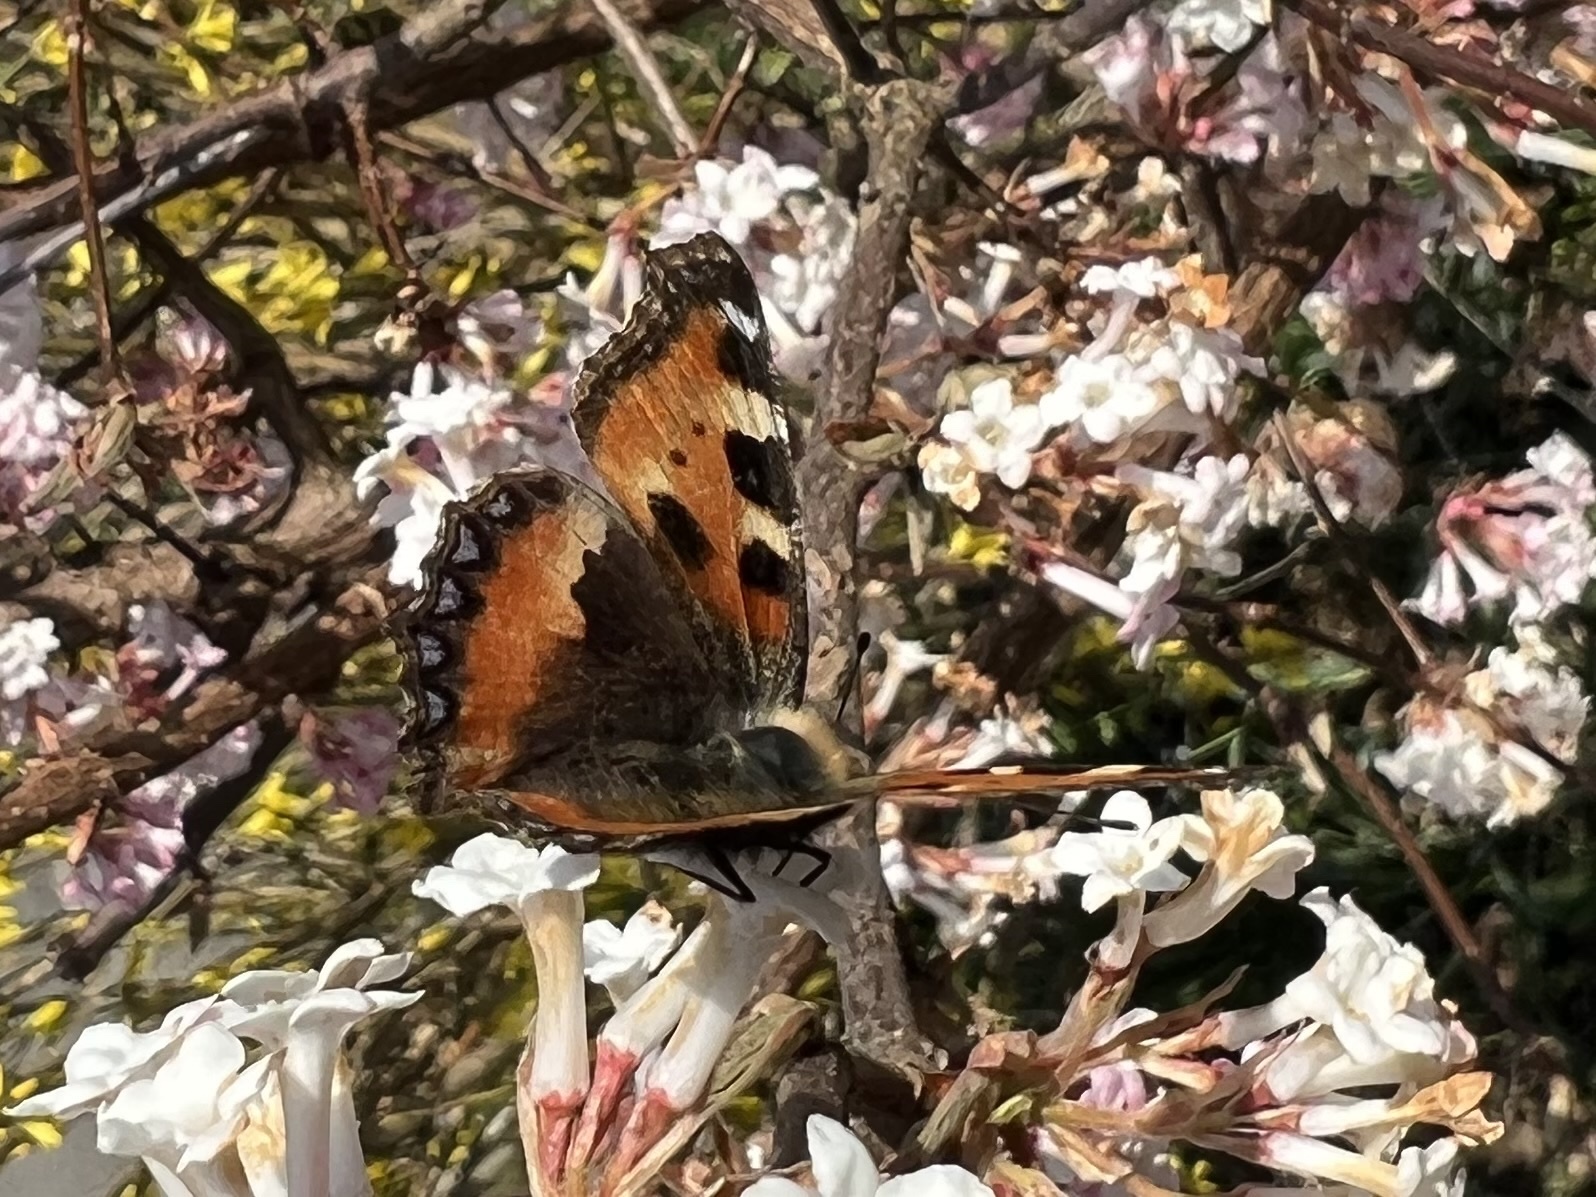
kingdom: Animalia
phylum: Arthropoda
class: Insecta
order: Lepidoptera
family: Nymphalidae
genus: Aglais
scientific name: Aglais urticae
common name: Small tortoiseshell
